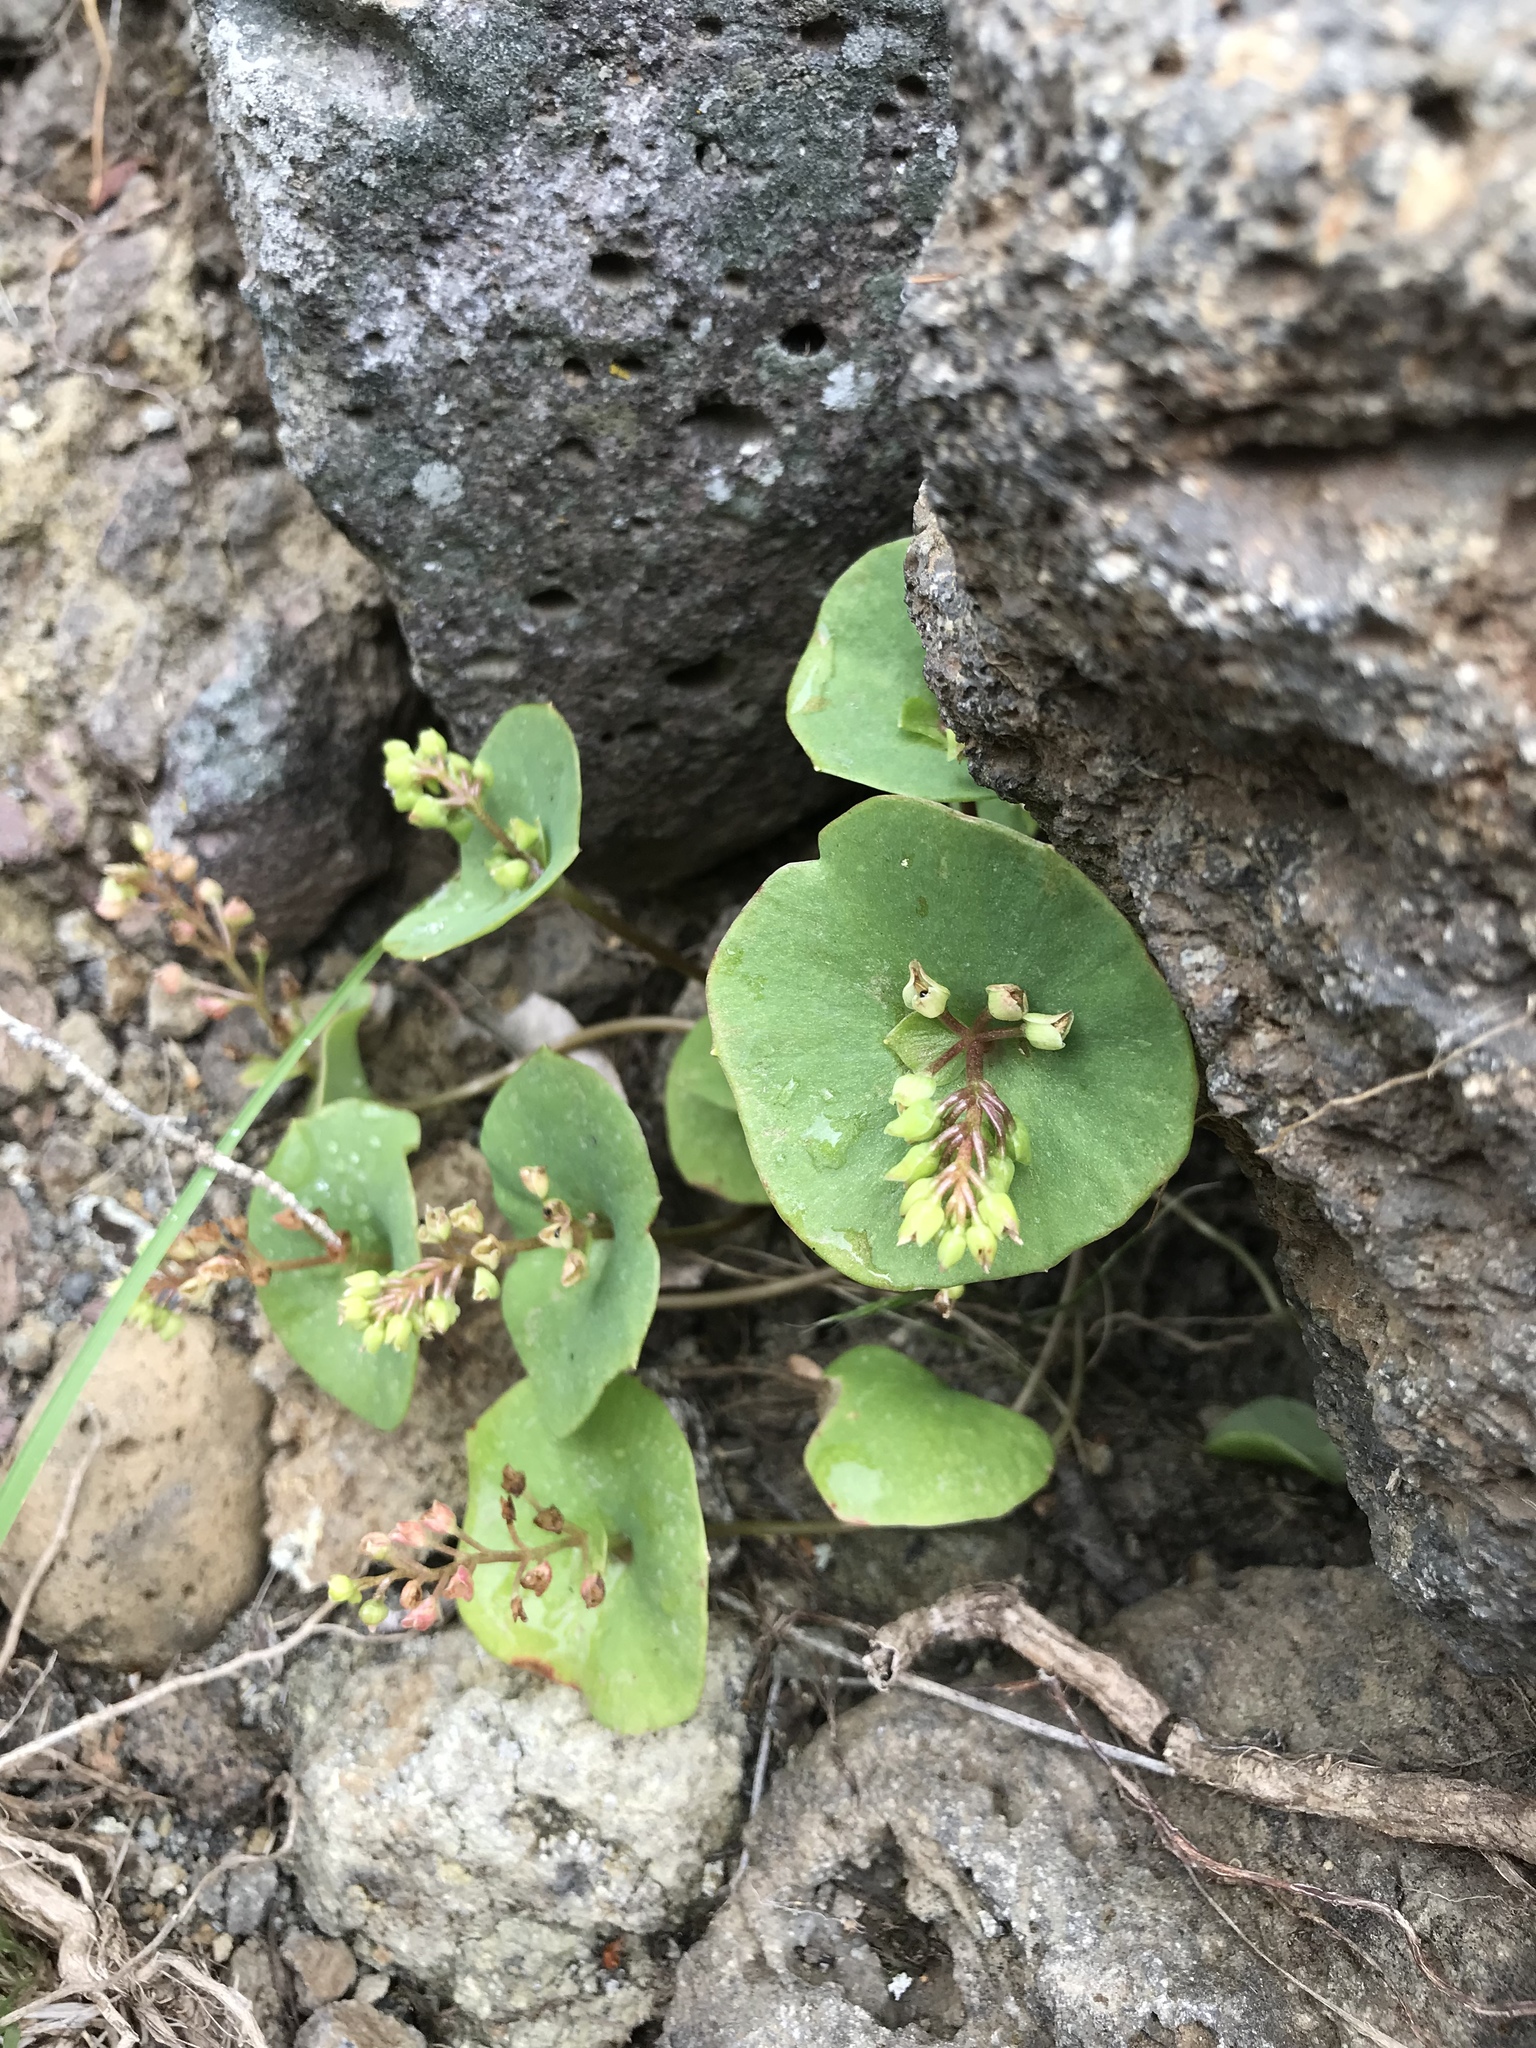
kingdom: Plantae
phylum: Tracheophyta
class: Magnoliopsida
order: Caryophyllales
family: Montiaceae
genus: Claytonia
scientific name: Claytonia perfoliata
